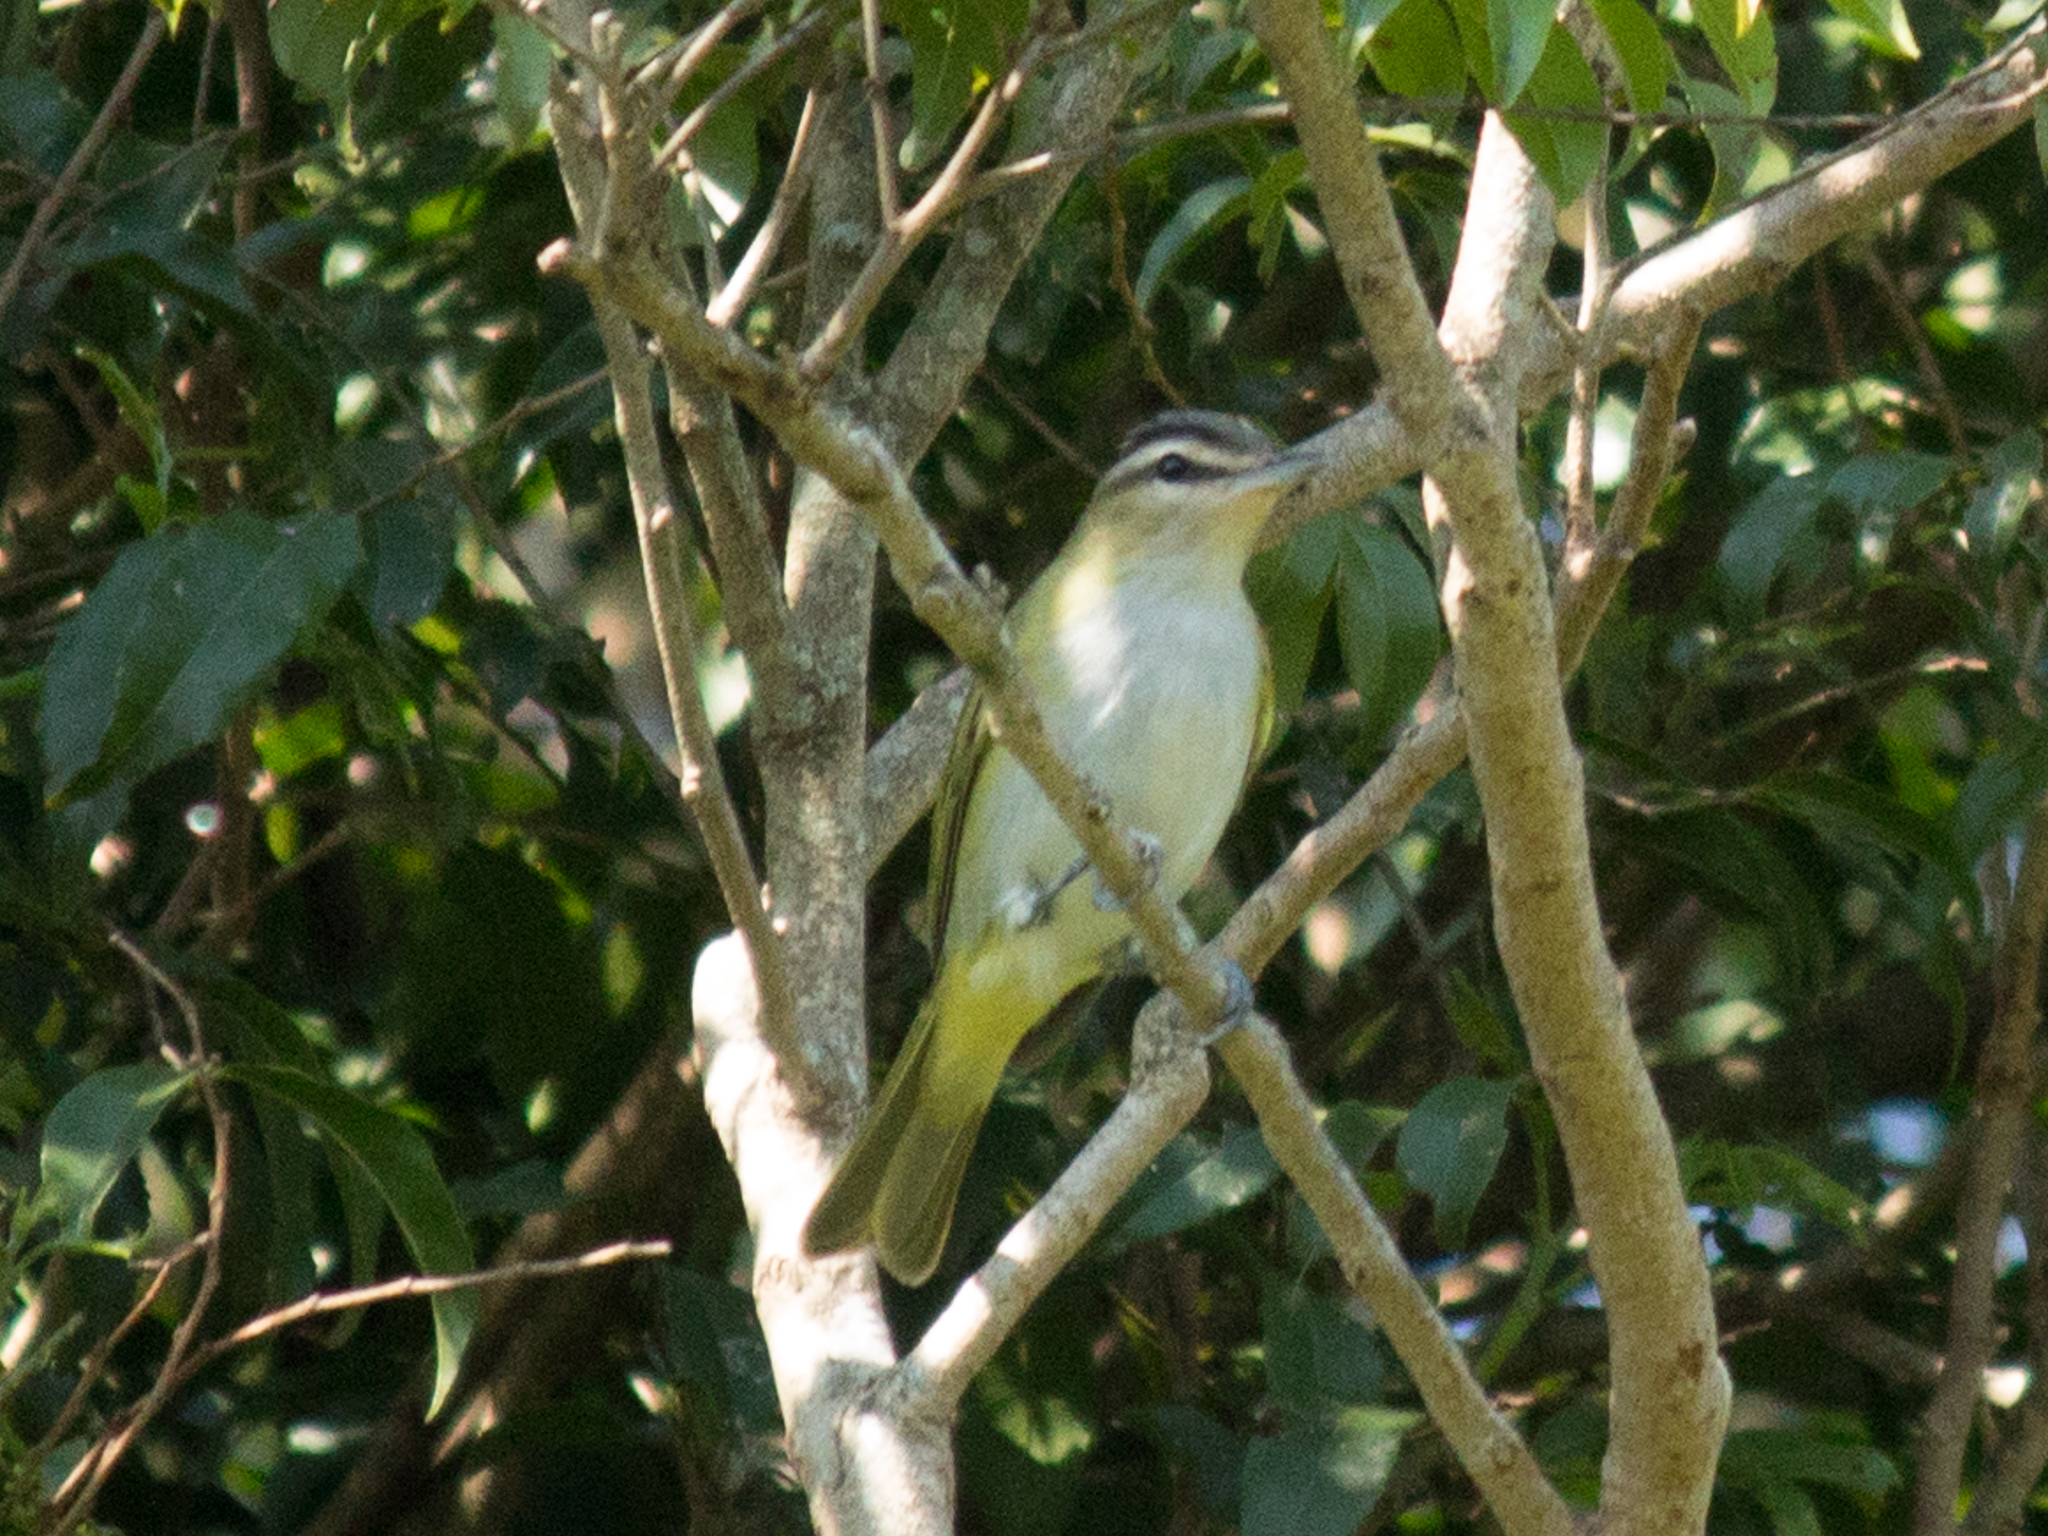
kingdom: Animalia
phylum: Chordata
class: Aves
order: Passeriformes
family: Vireonidae
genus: Vireo
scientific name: Vireo olivaceus
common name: Red-eyed vireo
